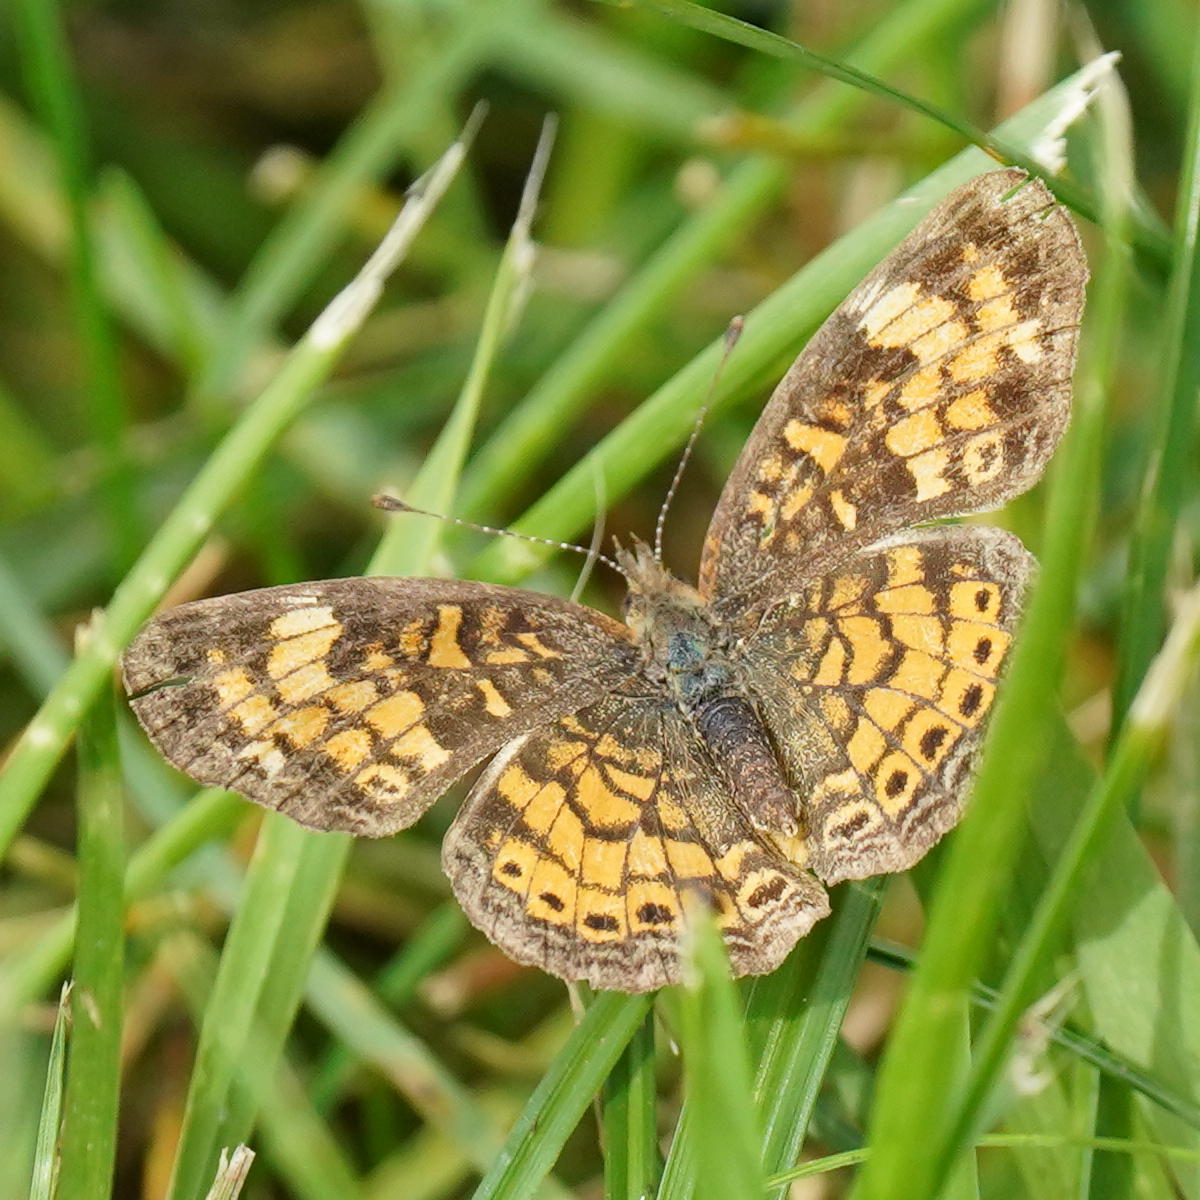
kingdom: Animalia
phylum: Arthropoda
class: Insecta
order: Lepidoptera
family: Nymphalidae
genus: Phyciodes
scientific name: Phyciodes tharos
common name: Pearl crescent
